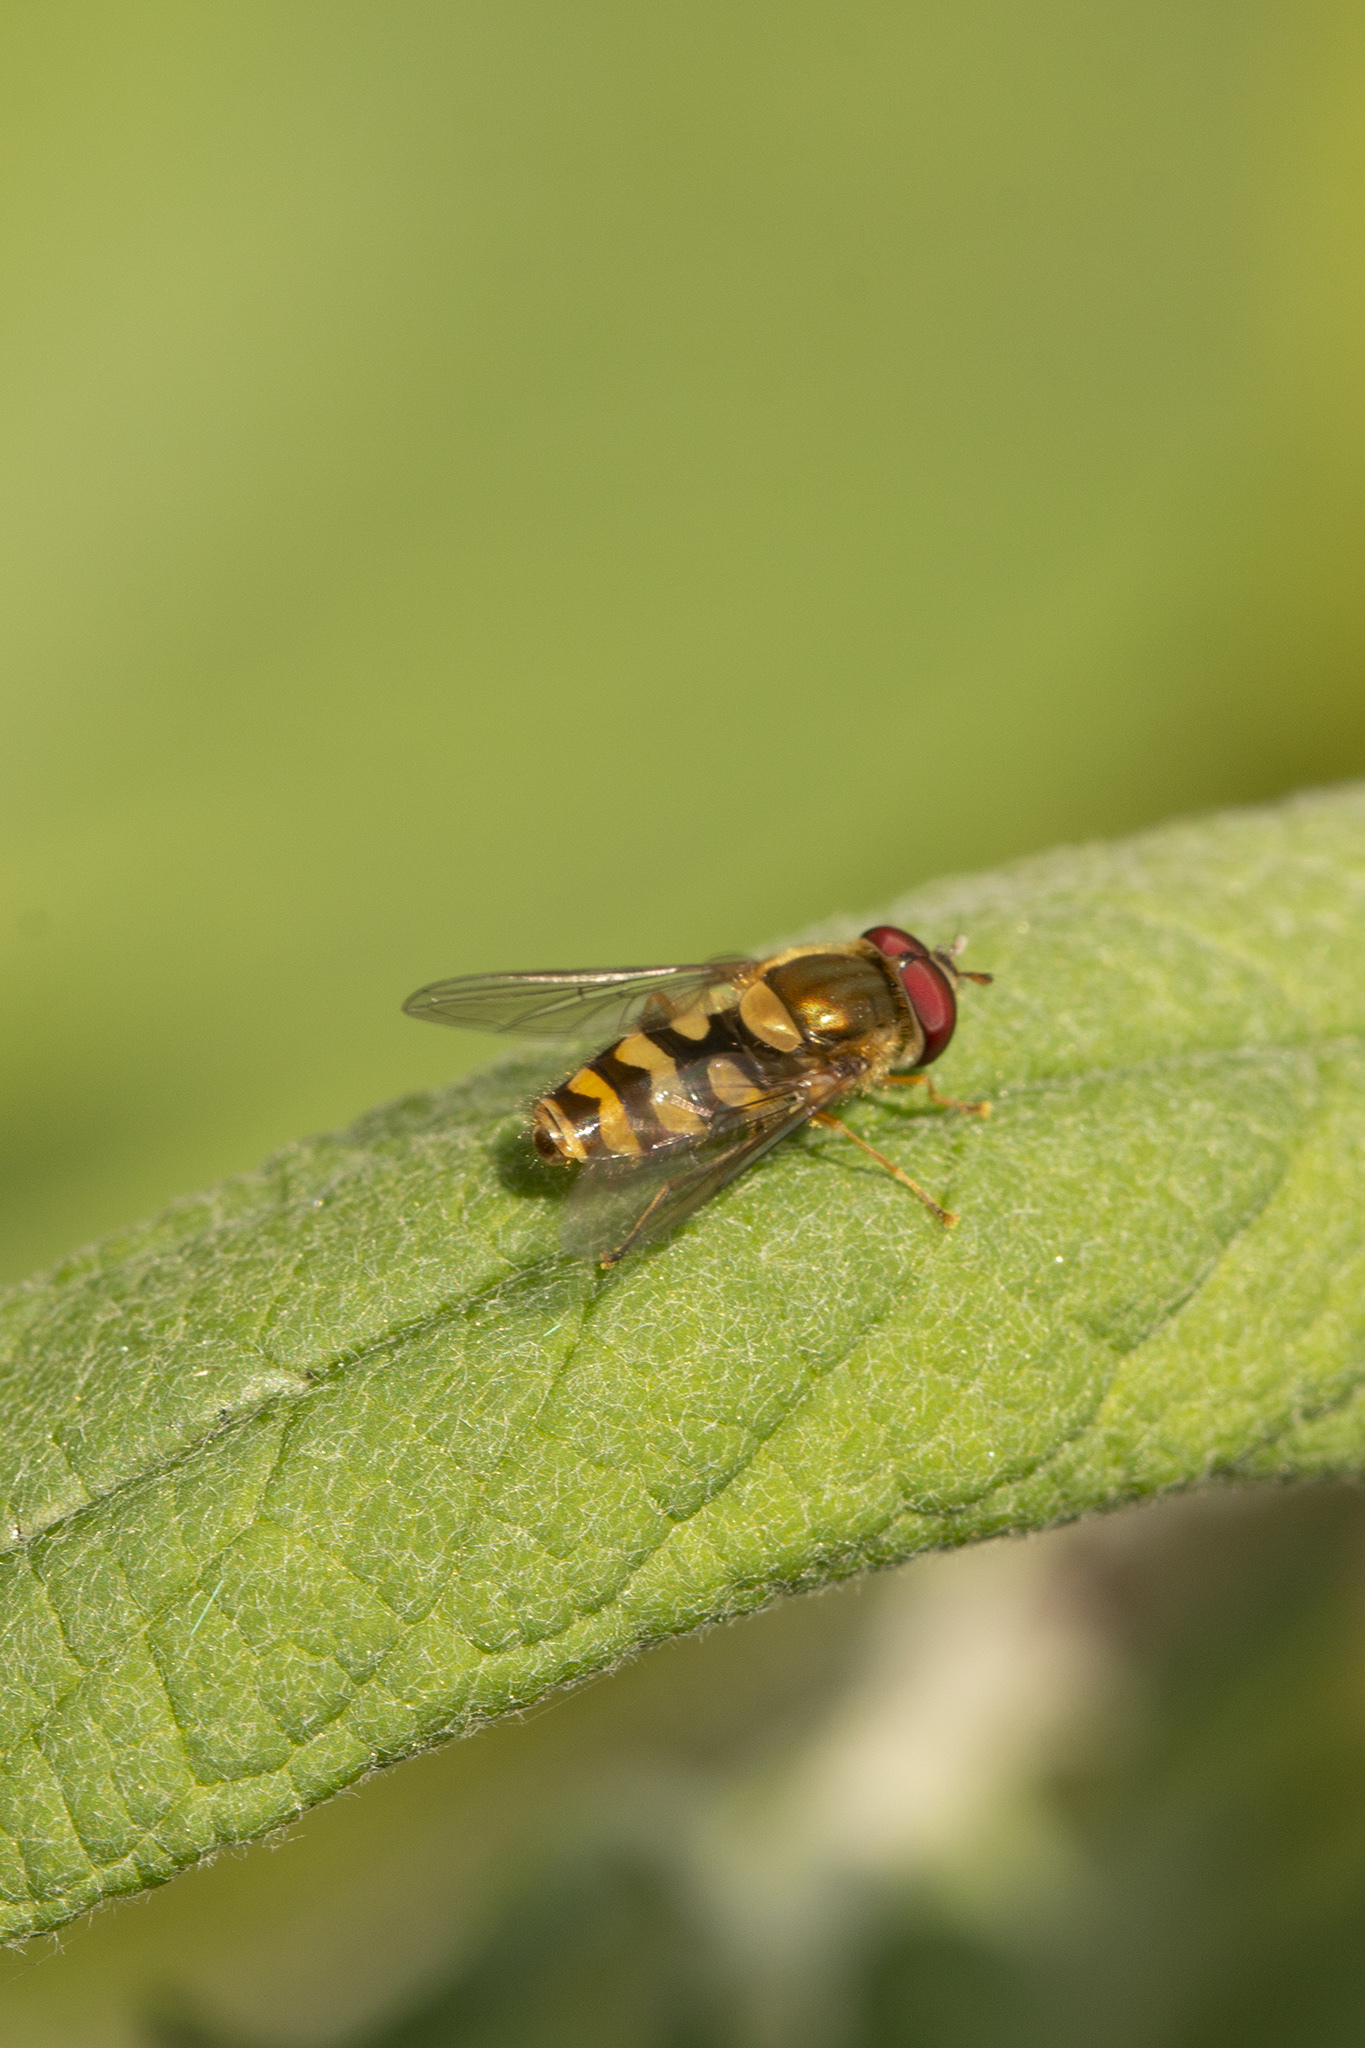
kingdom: Animalia
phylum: Arthropoda
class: Insecta
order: Diptera
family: Syrphidae
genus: Syrphus
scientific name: Syrphus
